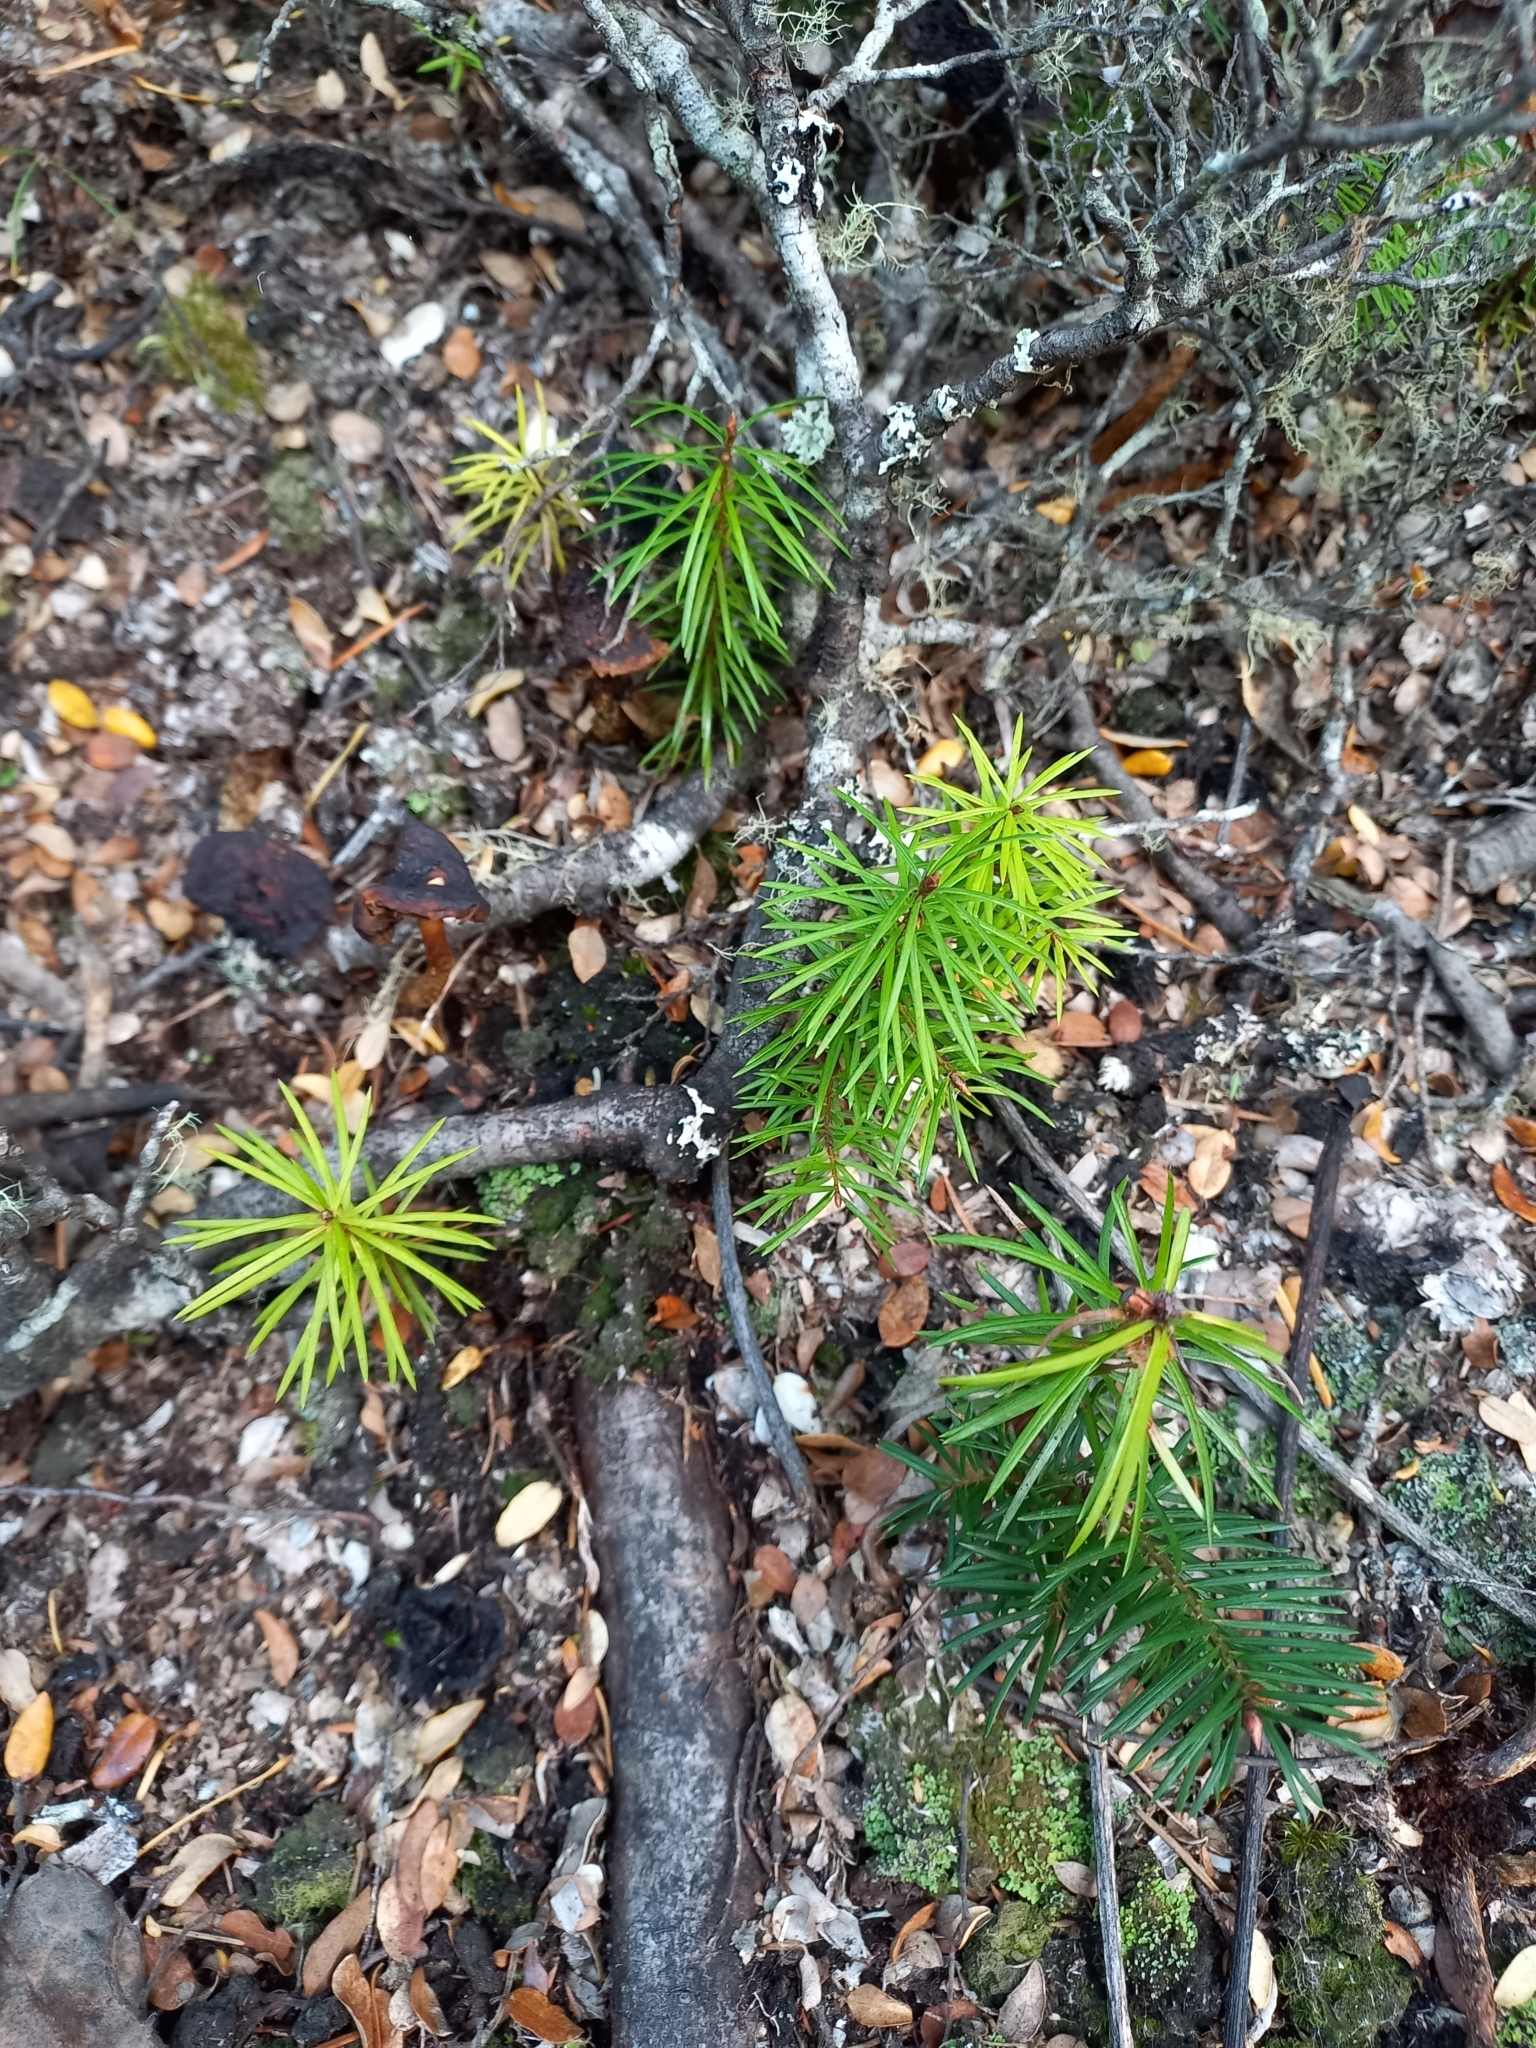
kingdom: Plantae
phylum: Tracheophyta
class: Pinopsida
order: Pinales
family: Pinaceae
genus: Pseudotsuga
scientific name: Pseudotsuga menziesii
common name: Douglas fir
